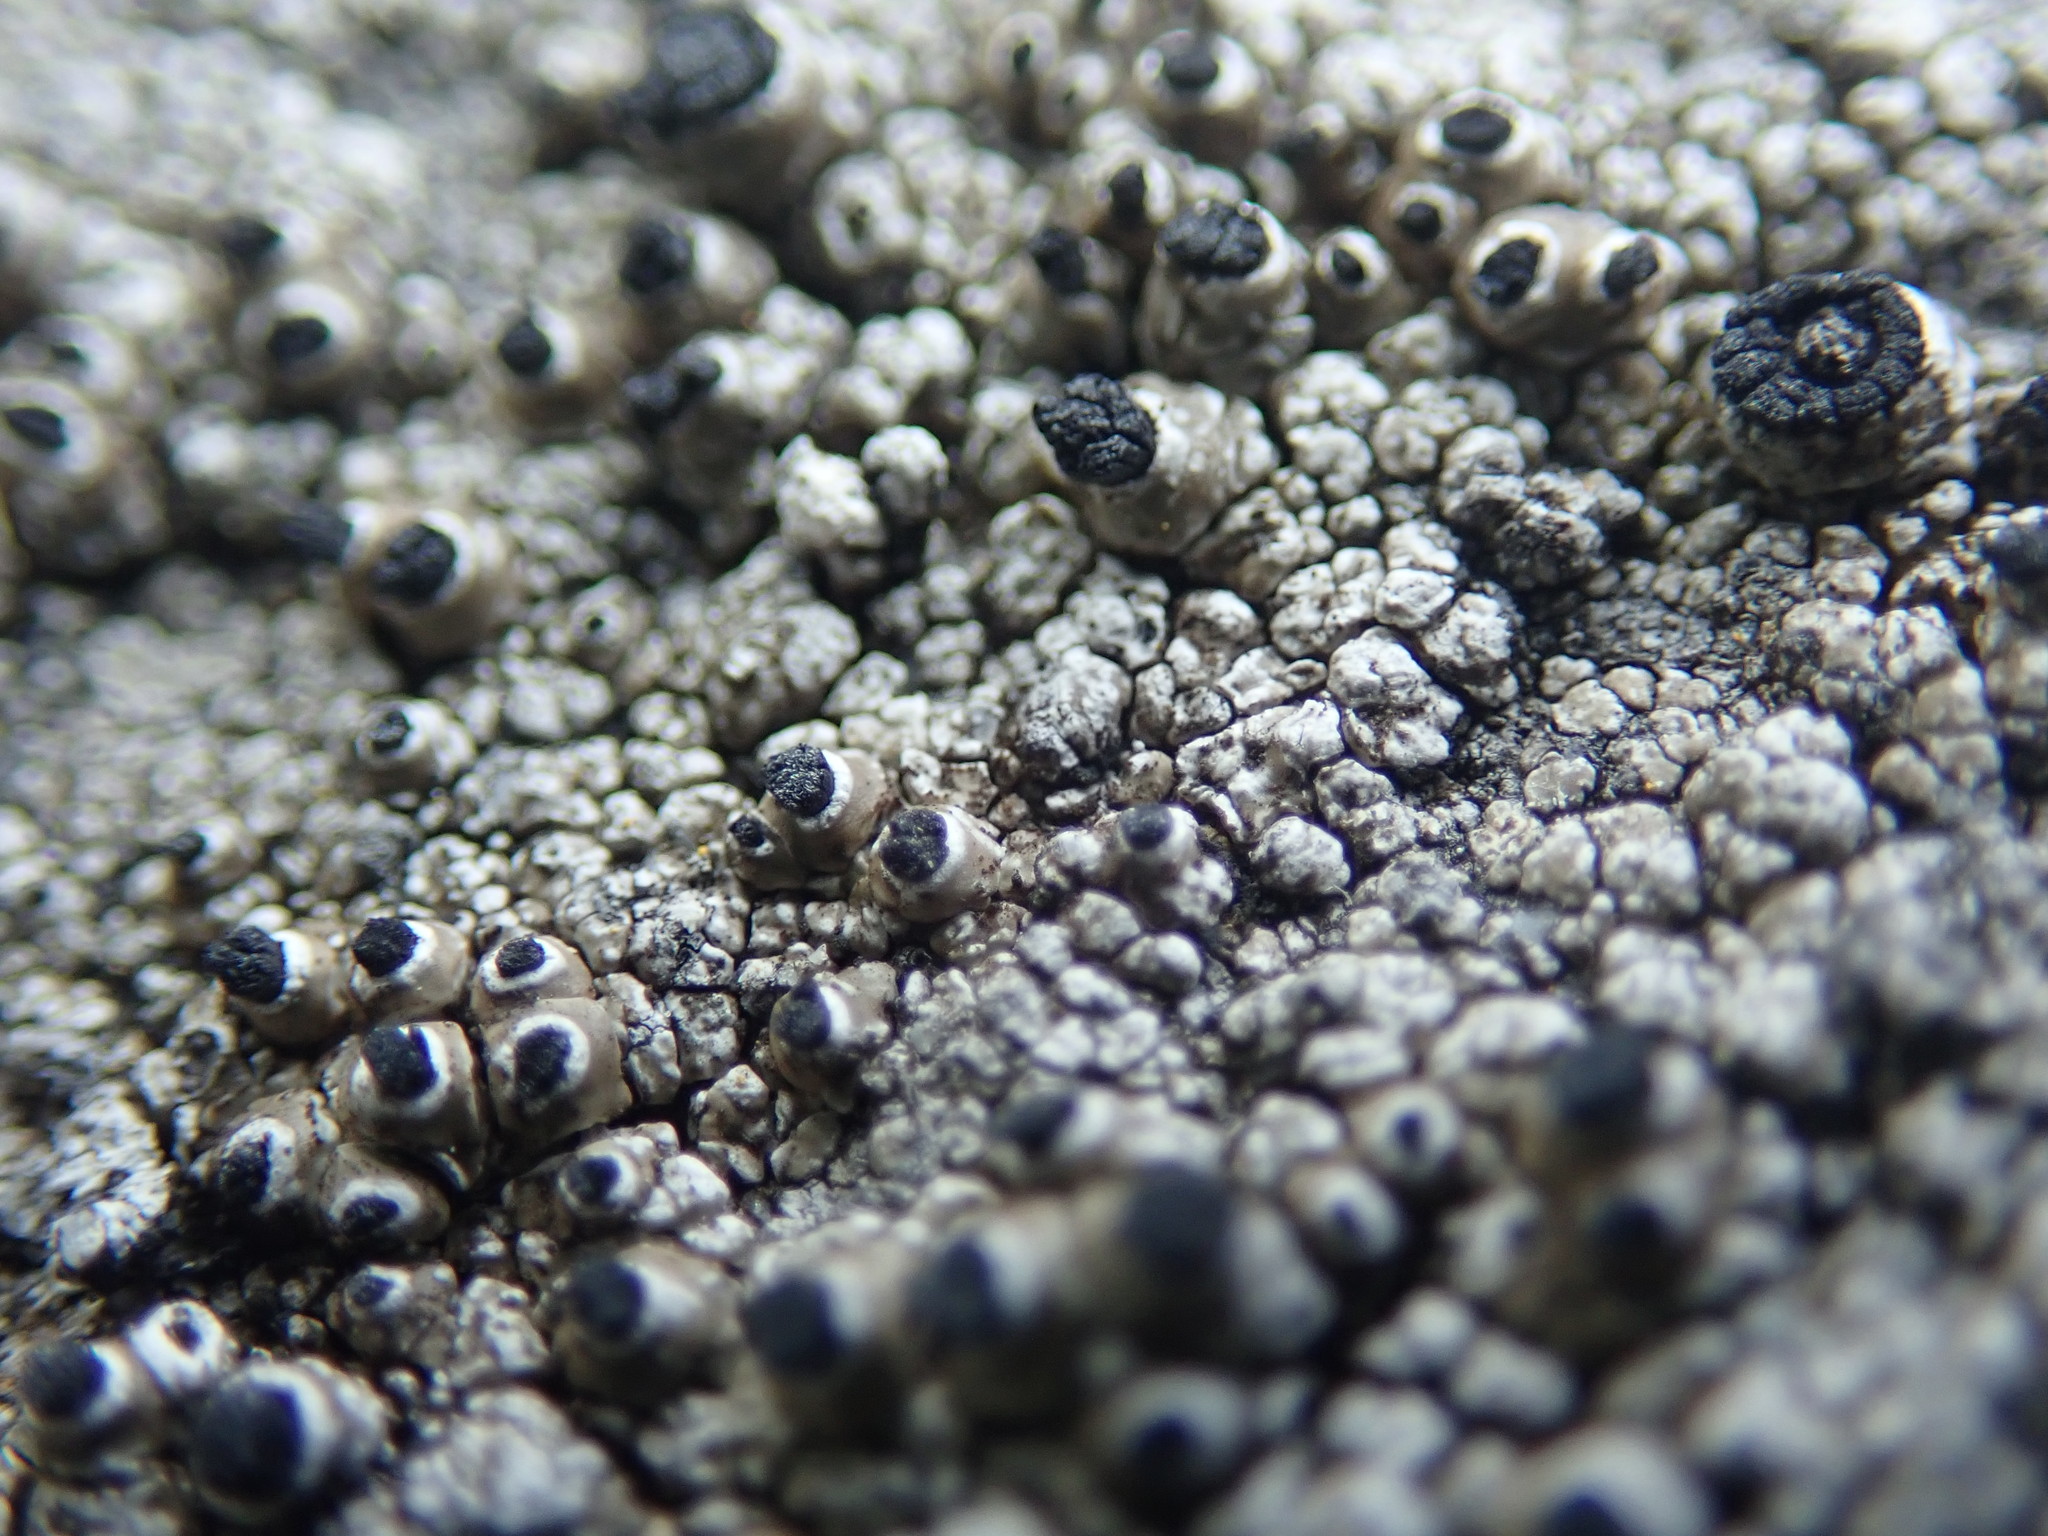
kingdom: Fungi
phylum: Ascomycota
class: Lecanoromycetes
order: Caliciales
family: Caliciaceae
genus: Thelomma
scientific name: Thelomma mammosum
